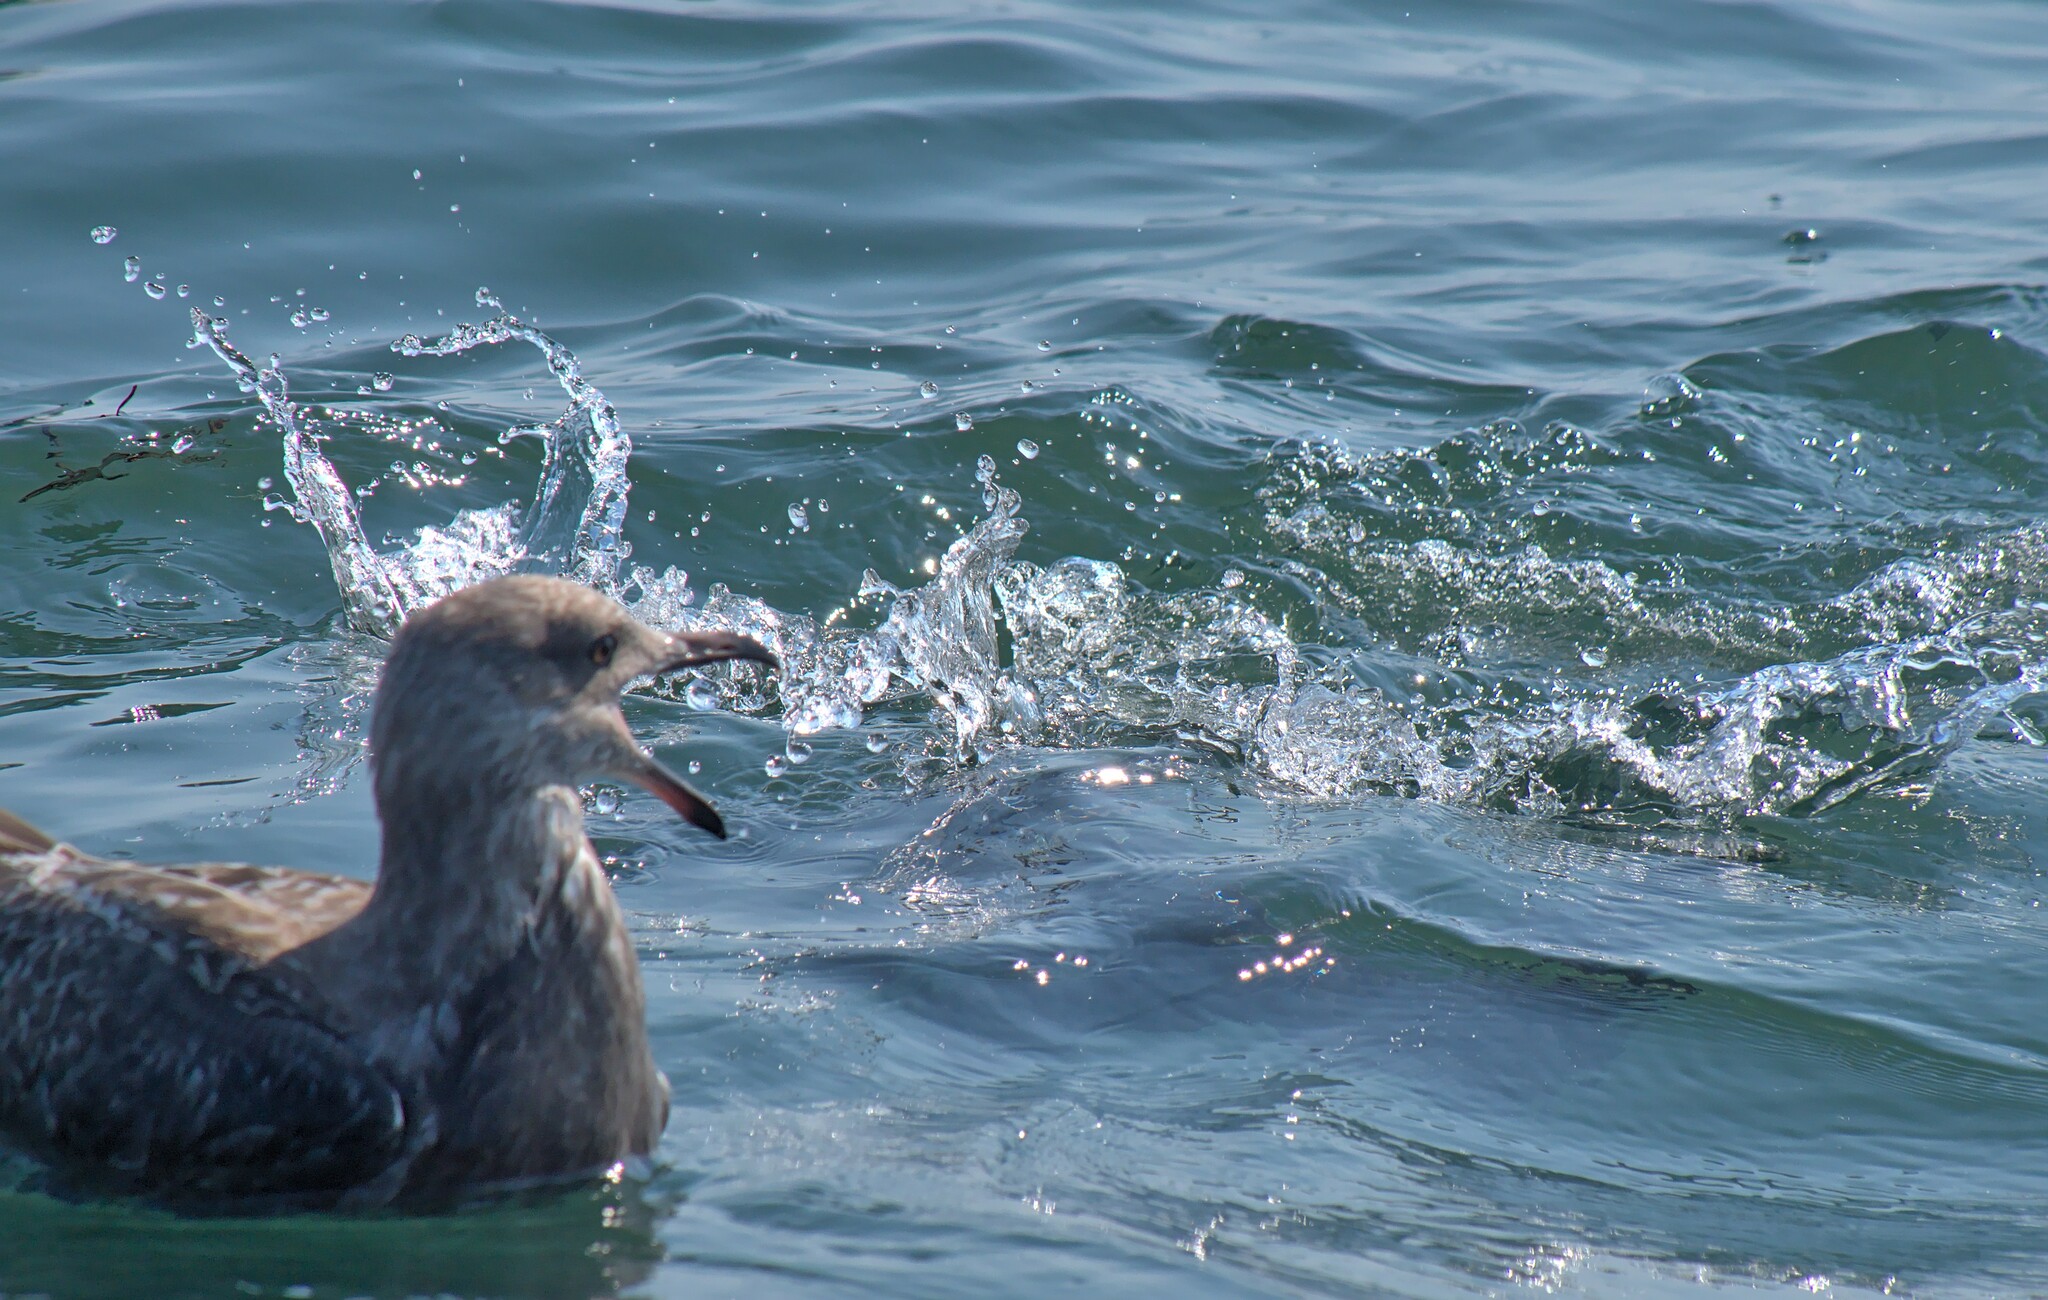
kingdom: Animalia
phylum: Chordata
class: Aves
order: Procellariiformes
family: Procellariidae
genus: Puffinus
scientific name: Puffinus gravis
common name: Great shearwater
